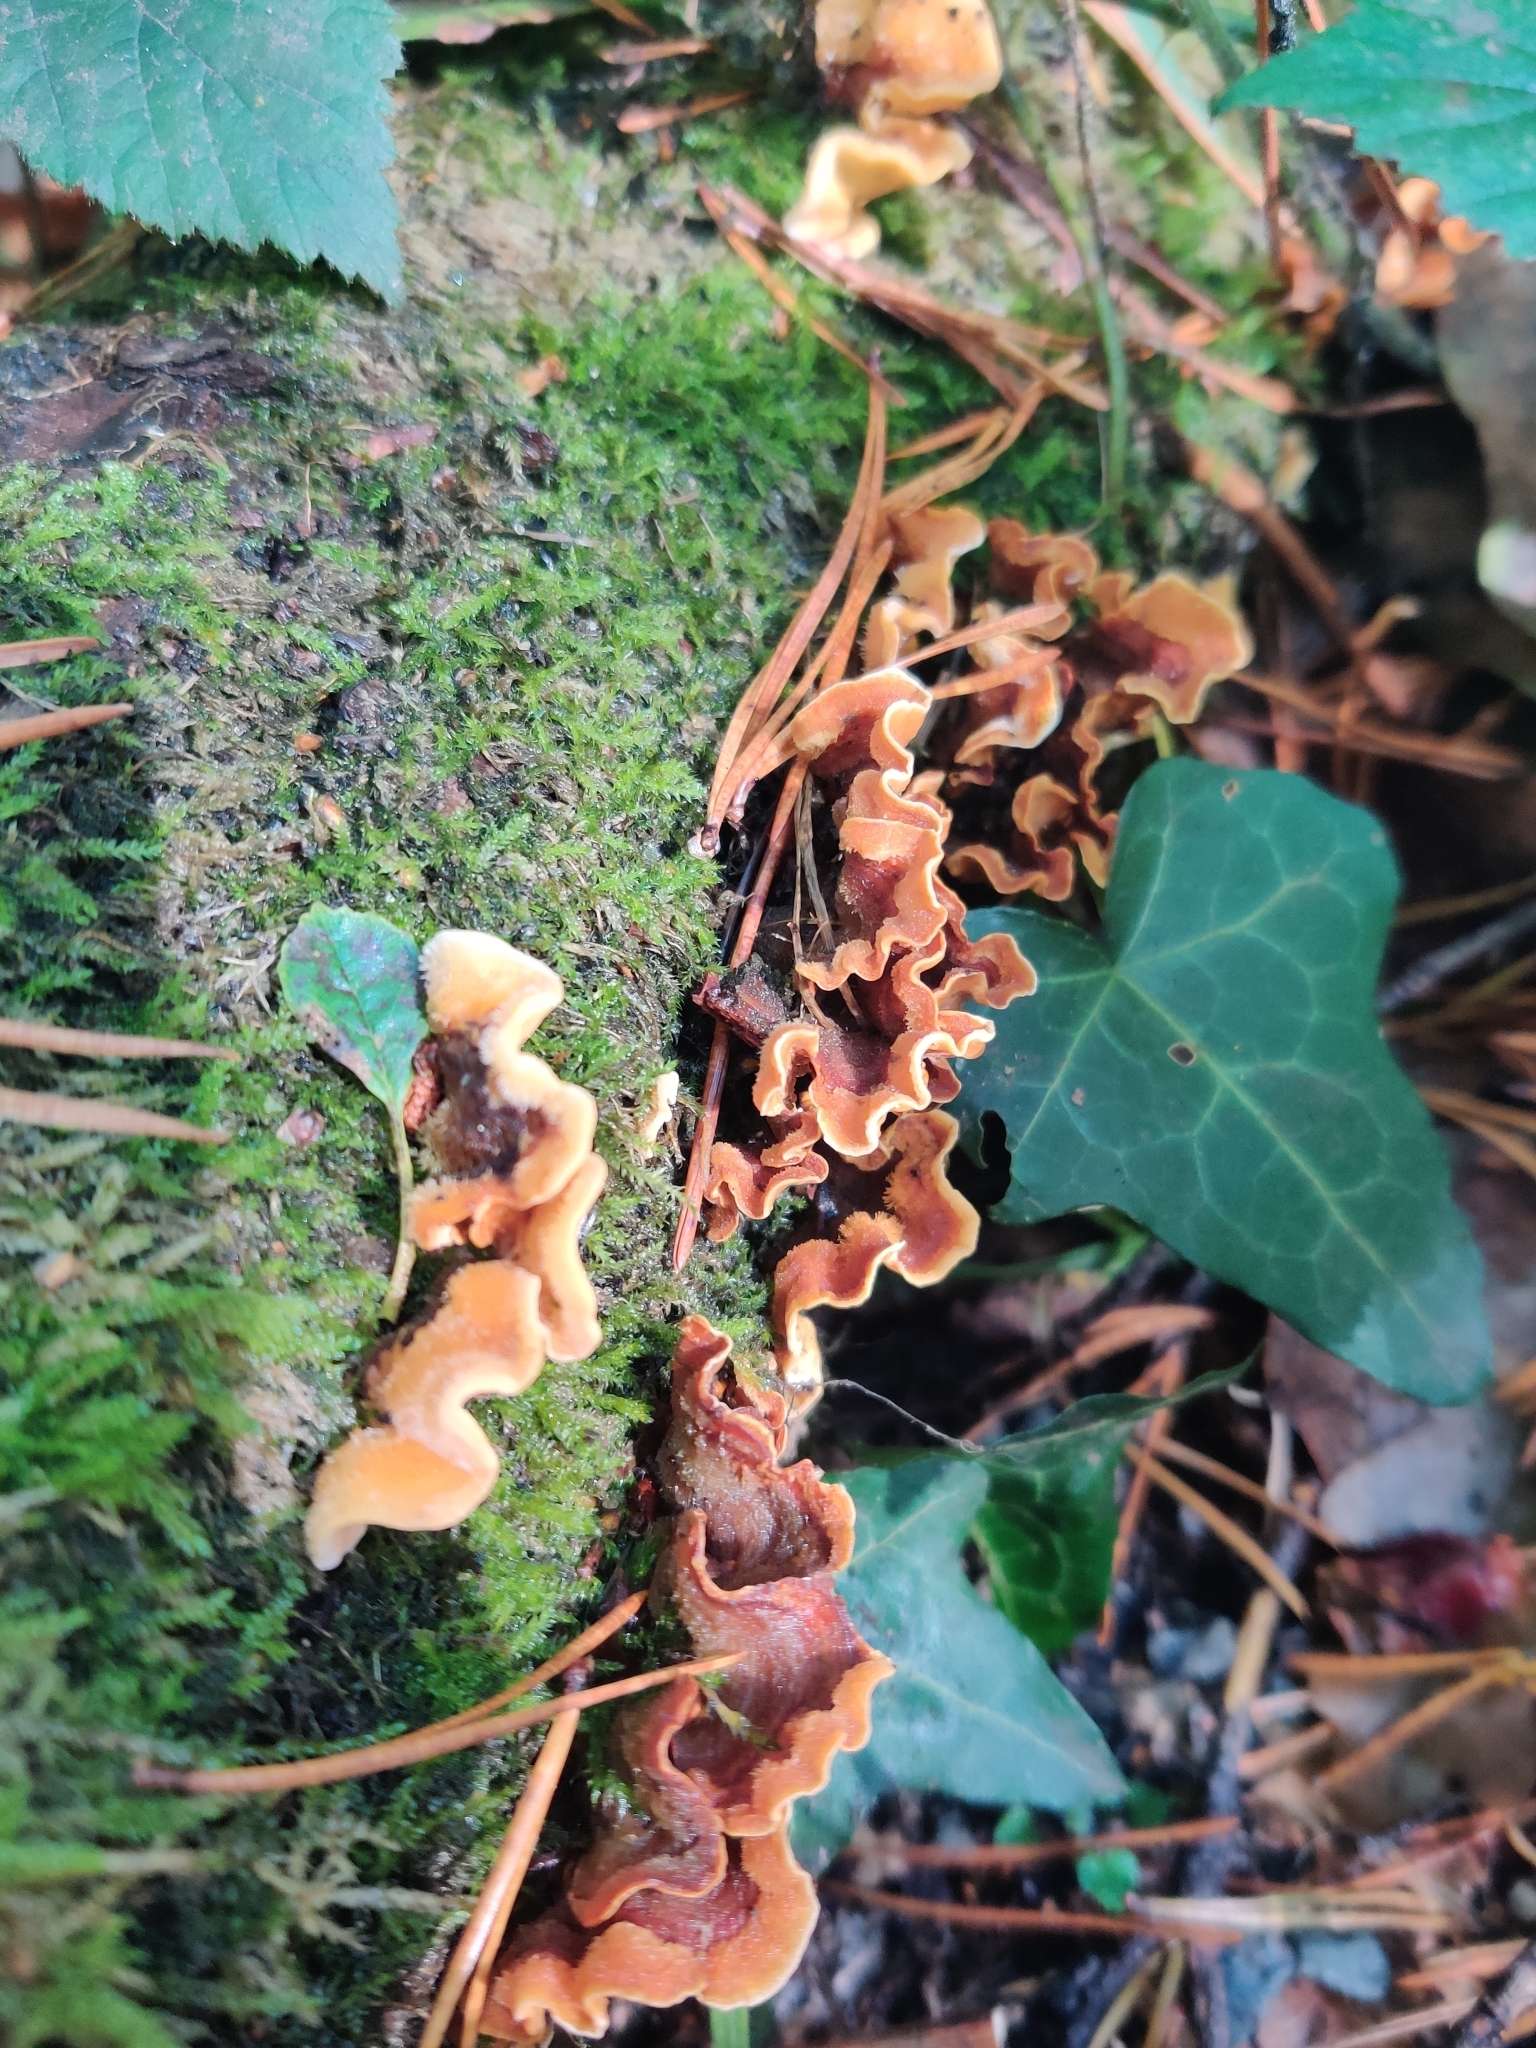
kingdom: Fungi
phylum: Basidiomycota
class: Agaricomycetes
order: Russulales
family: Stereaceae
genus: Stereum
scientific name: Stereum hirsutum
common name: Hairy curtain crust
